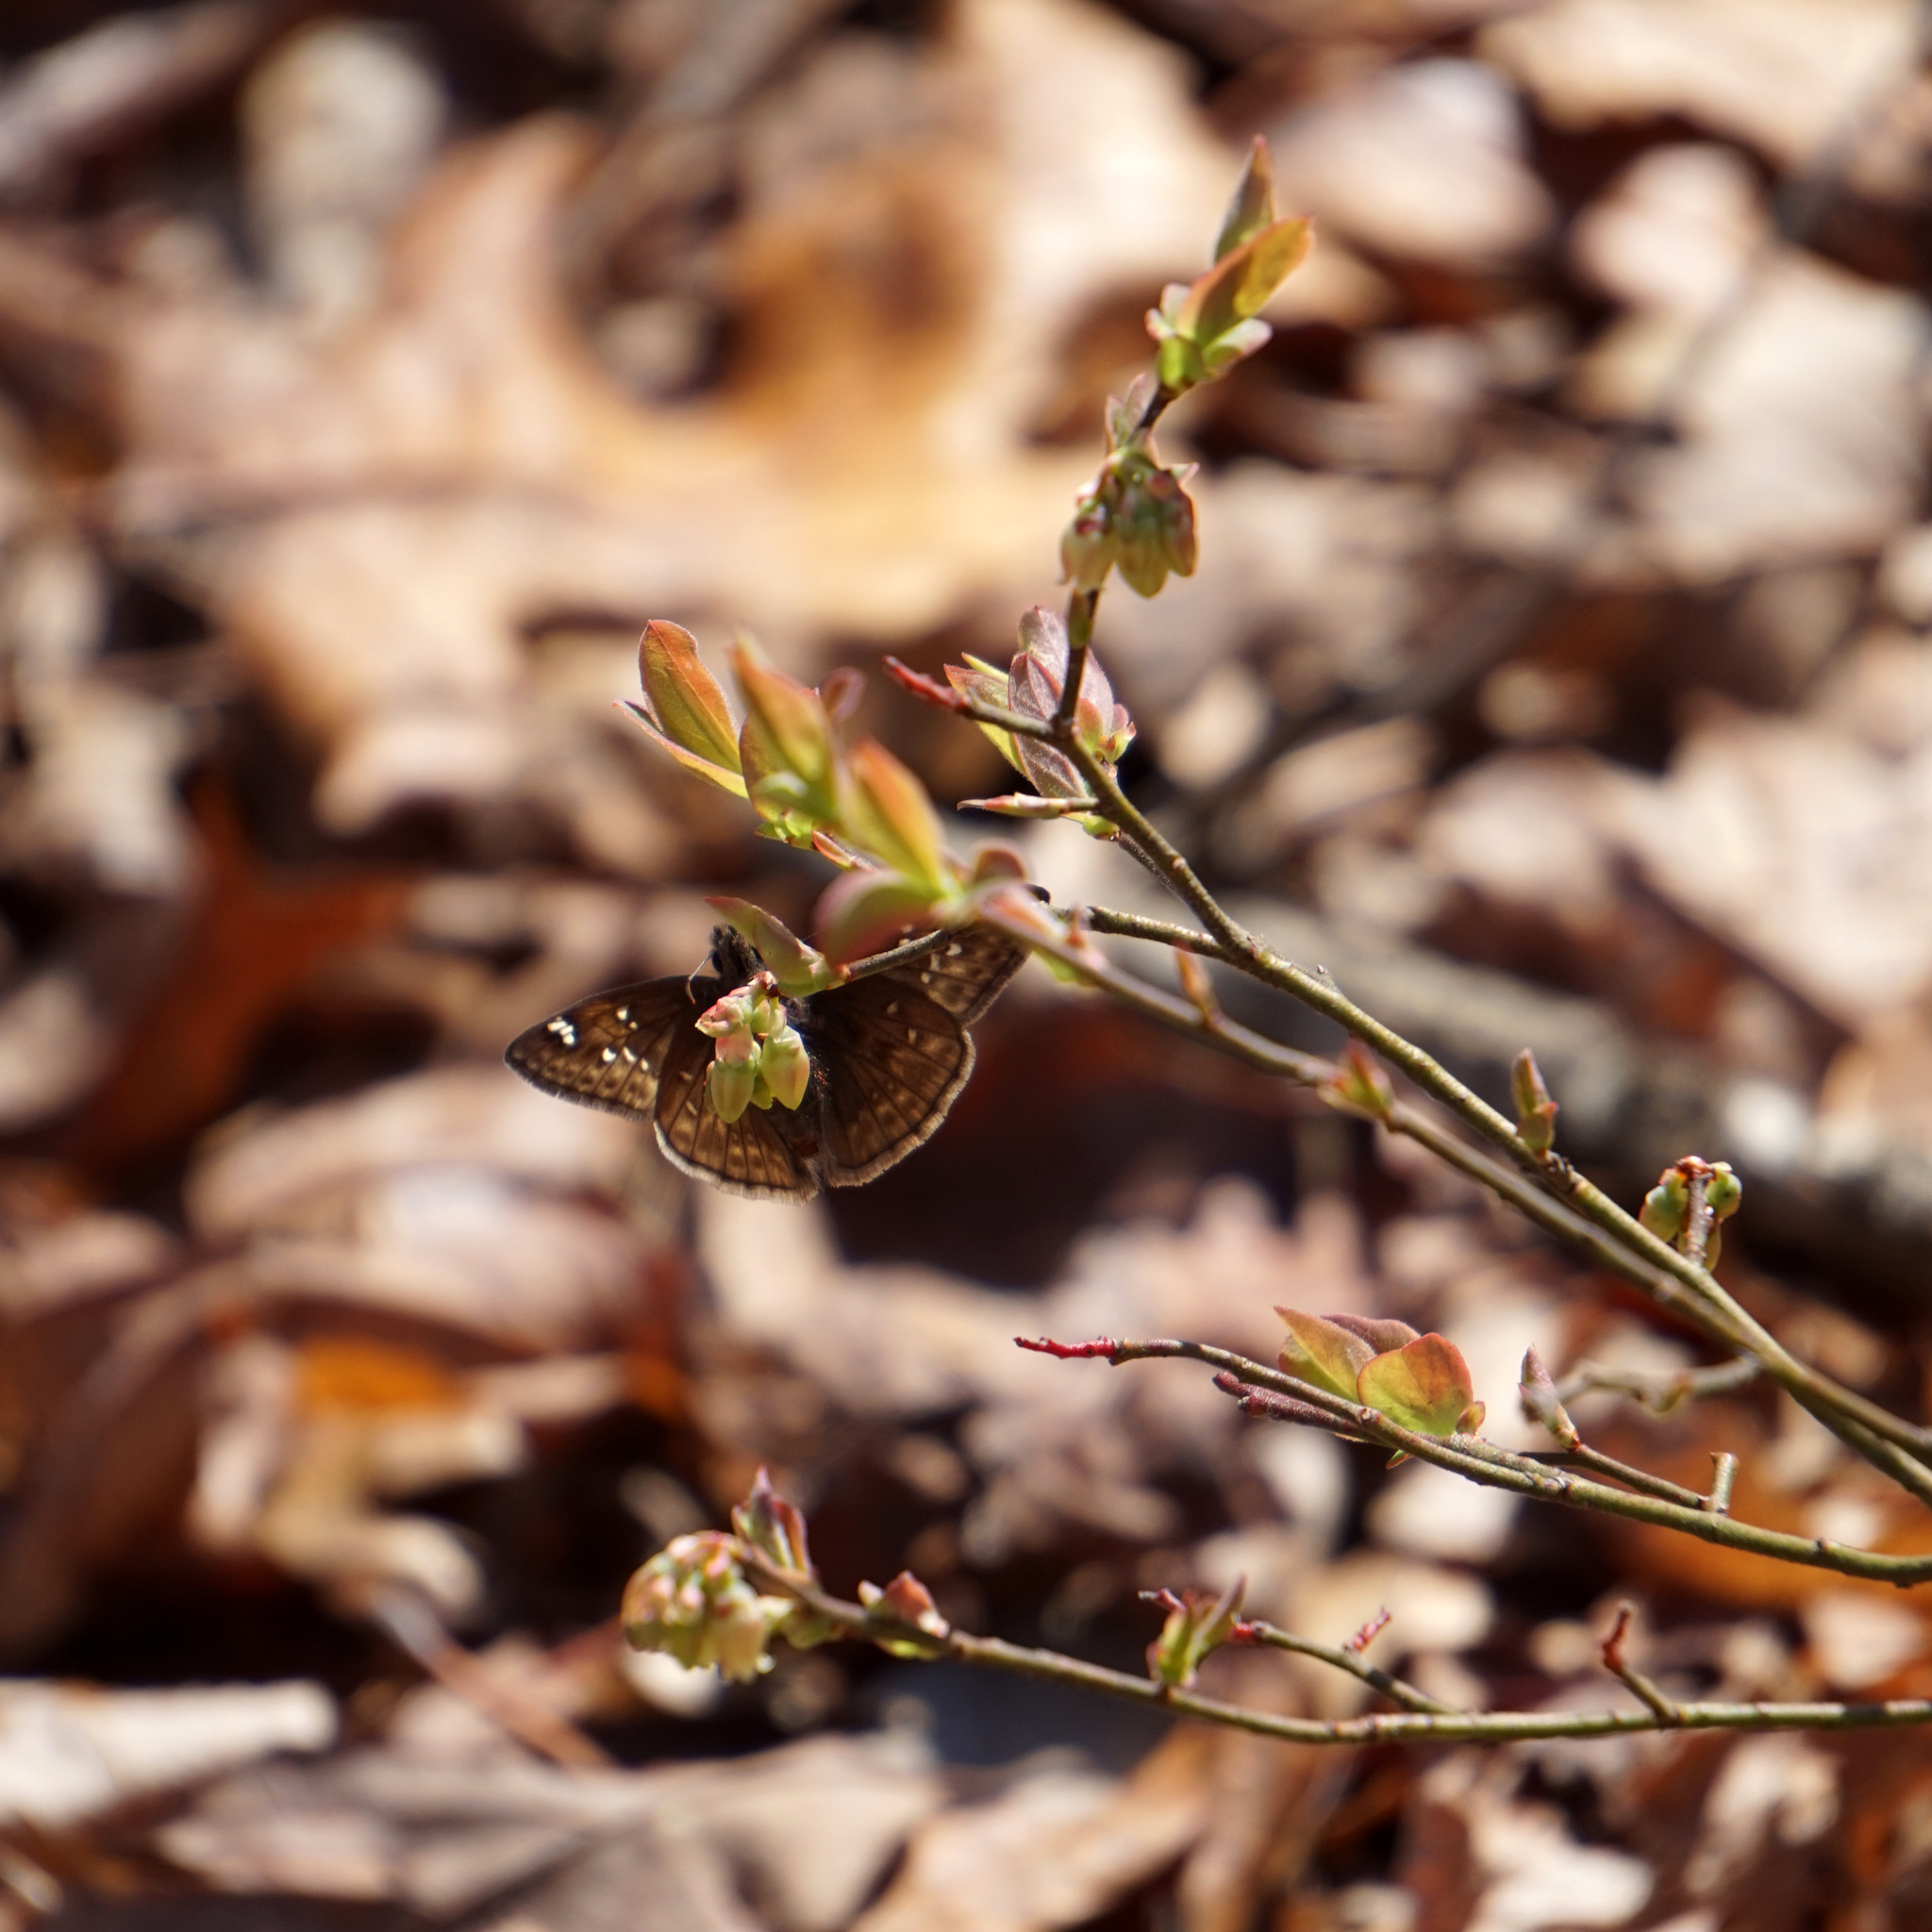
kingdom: Animalia
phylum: Arthropoda
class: Insecta
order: Lepidoptera
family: Hesperiidae
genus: Erynnis
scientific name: Erynnis juvenalis
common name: Juvenal's duskywing
